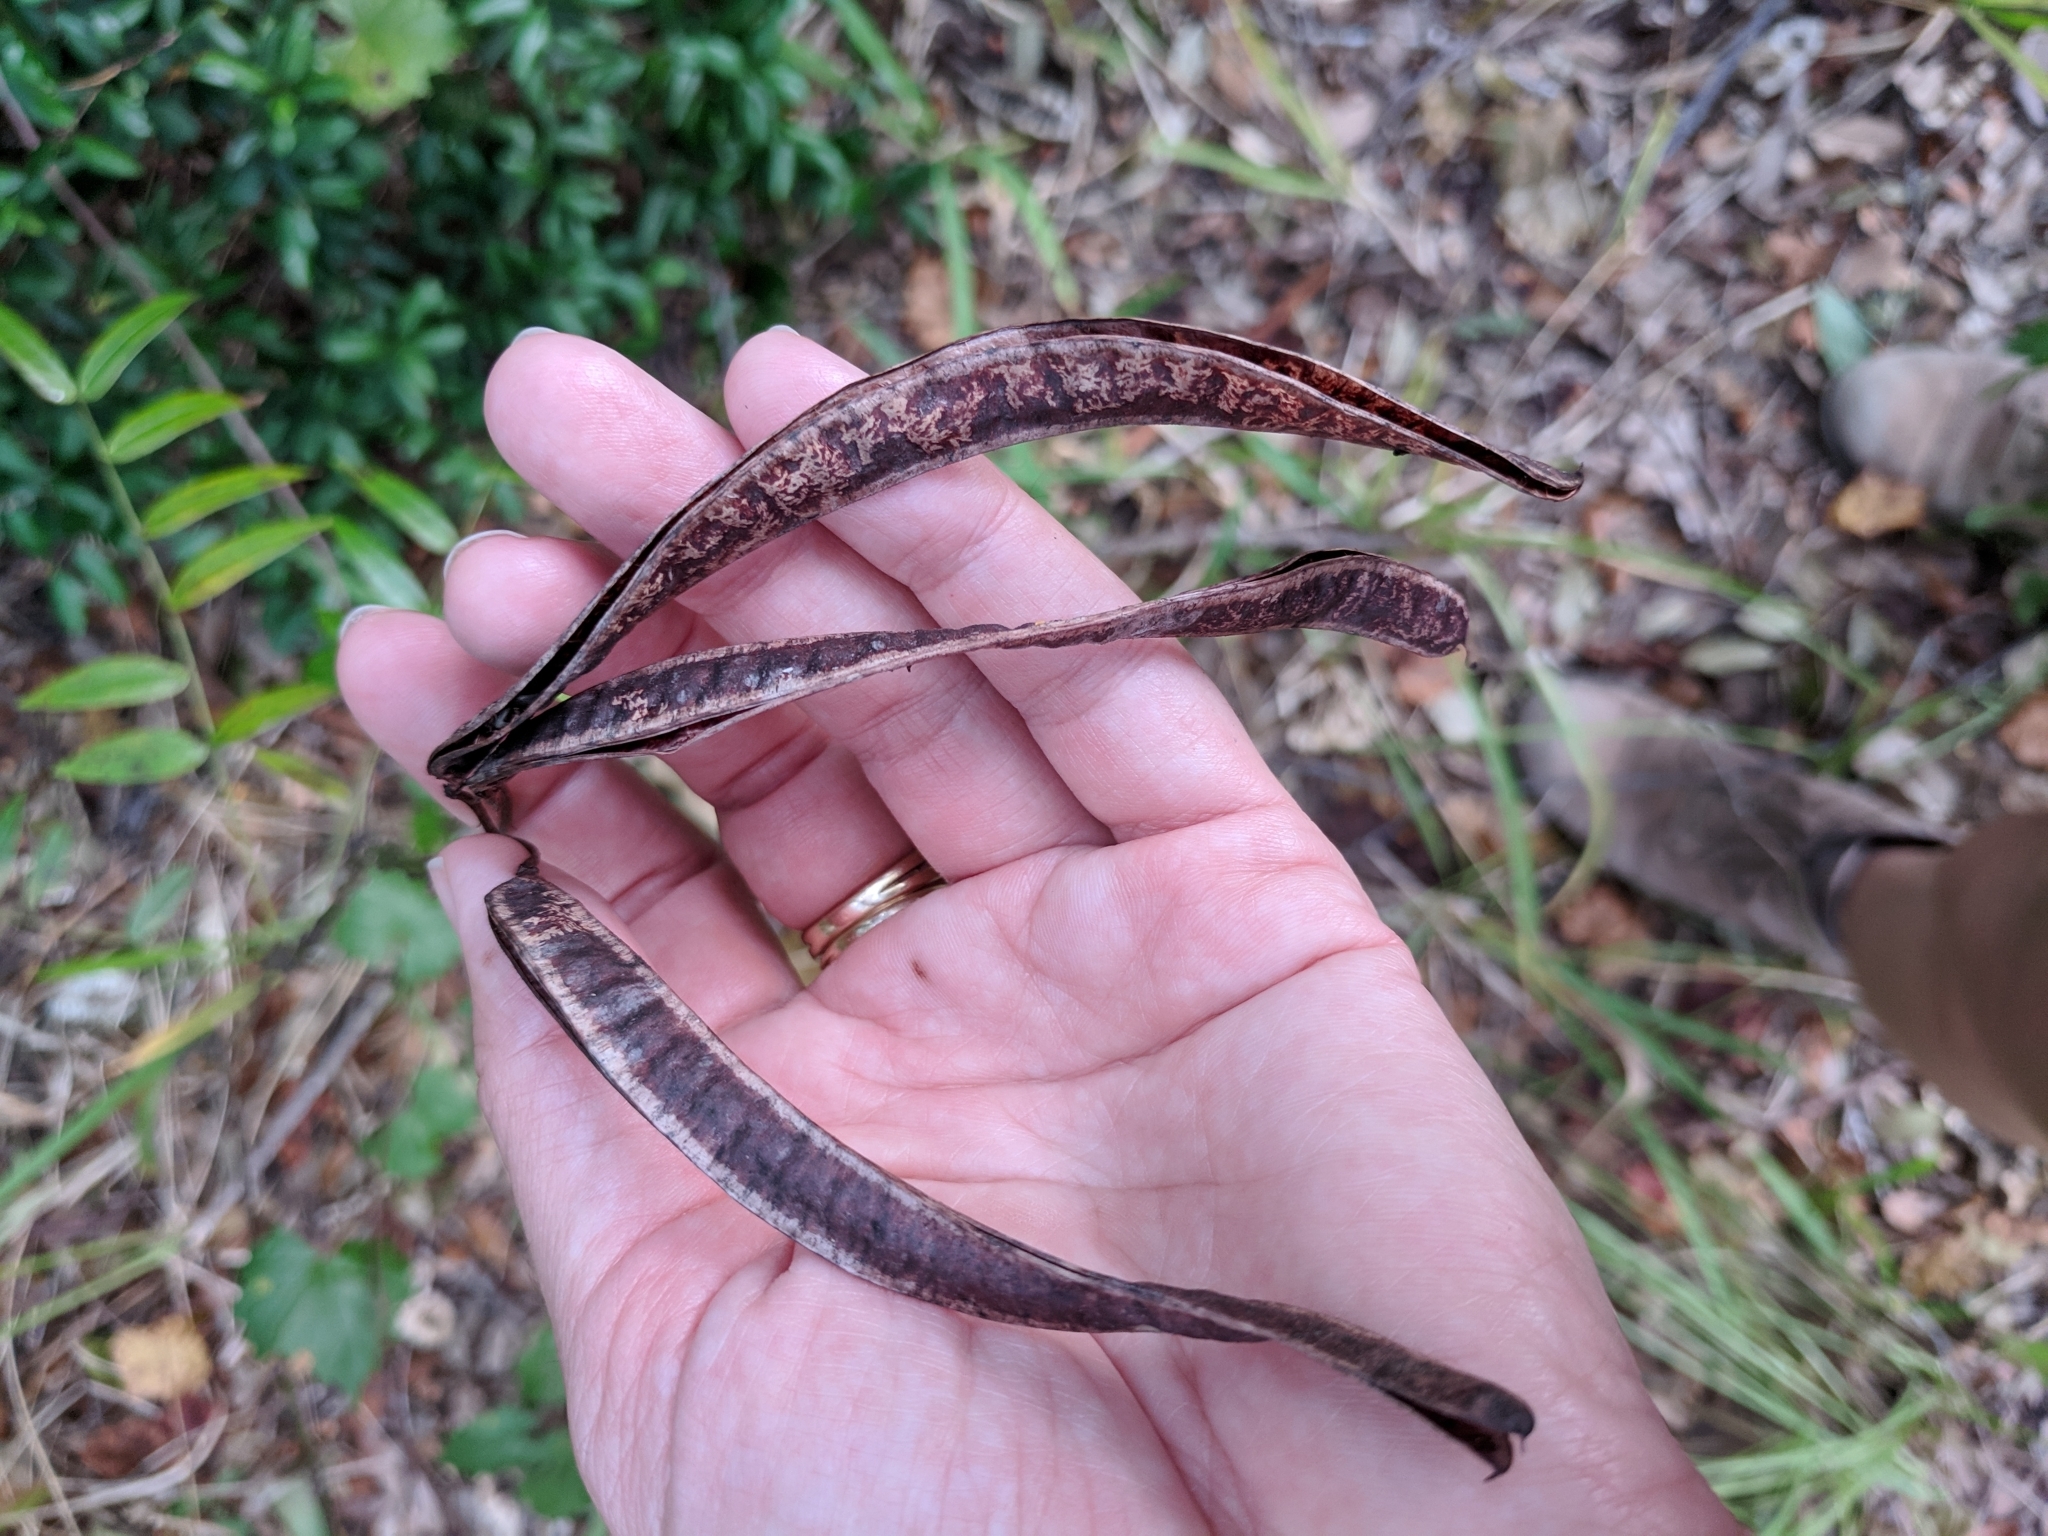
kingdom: Plantae
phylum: Tracheophyta
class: Magnoliopsida
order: Fabales
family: Fabaceae
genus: Senna
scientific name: Senna ligustrina
